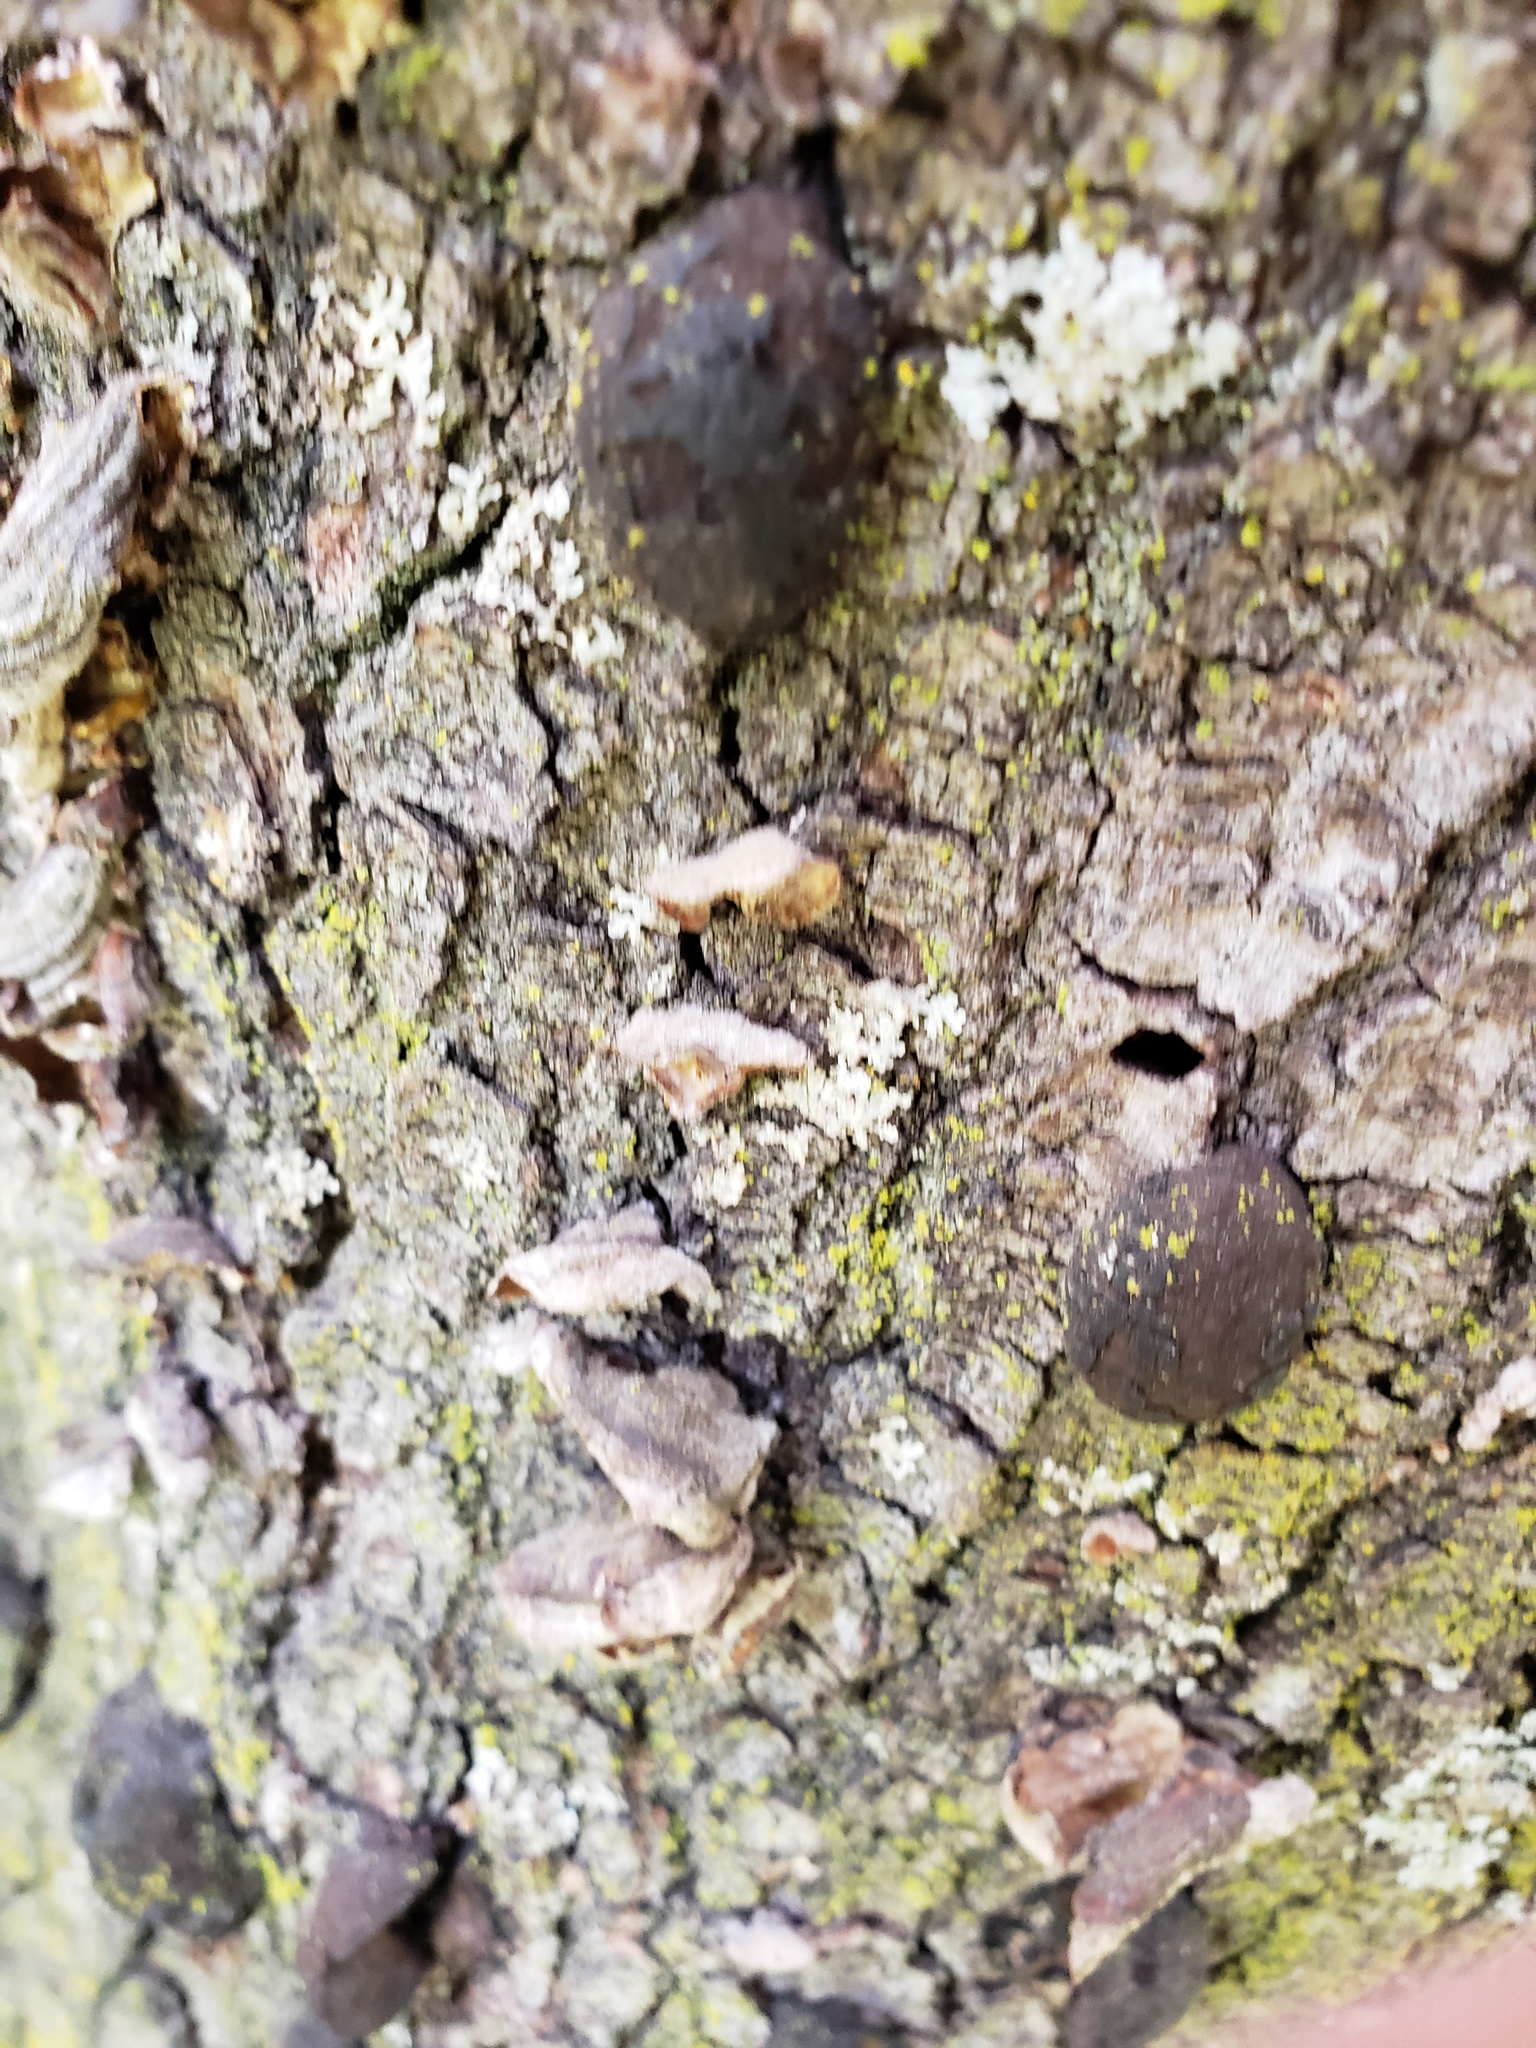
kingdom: Fungi
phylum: Ascomycota
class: Sordariomycetes
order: Xylariales
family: Hypoxylaceae
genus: Annulohypoxylon
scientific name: Annulohypoxylon thouarsianum
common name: Cramp balls
